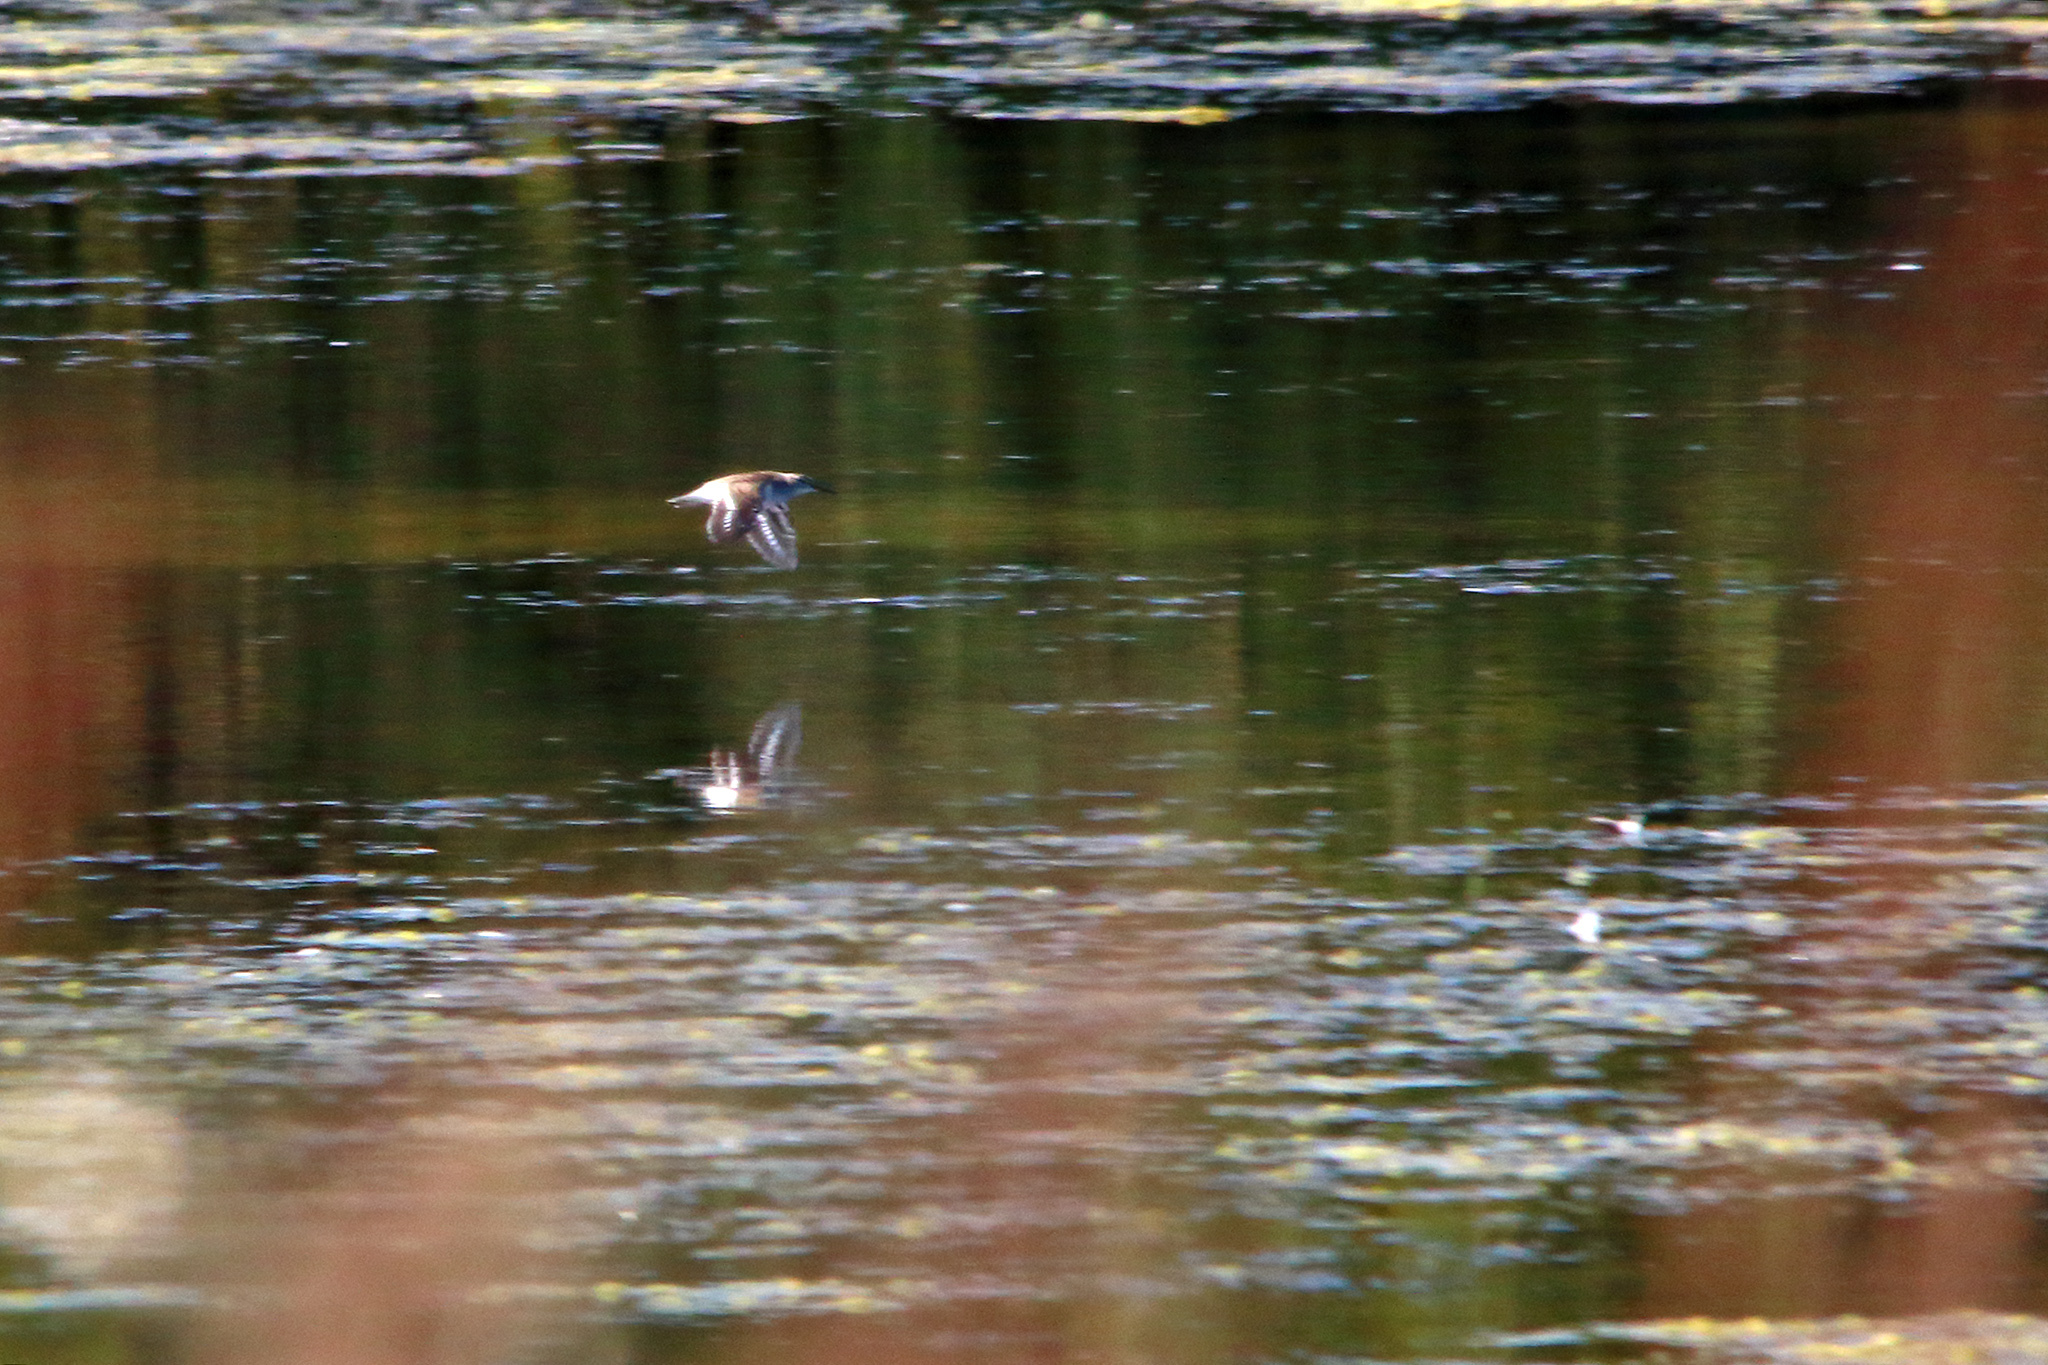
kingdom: Animalia
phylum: Chordata
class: Aves
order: Charadriiformes
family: Scolopacidae
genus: Actitis
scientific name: Actitis hypoleucos
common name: Common sandpiper
